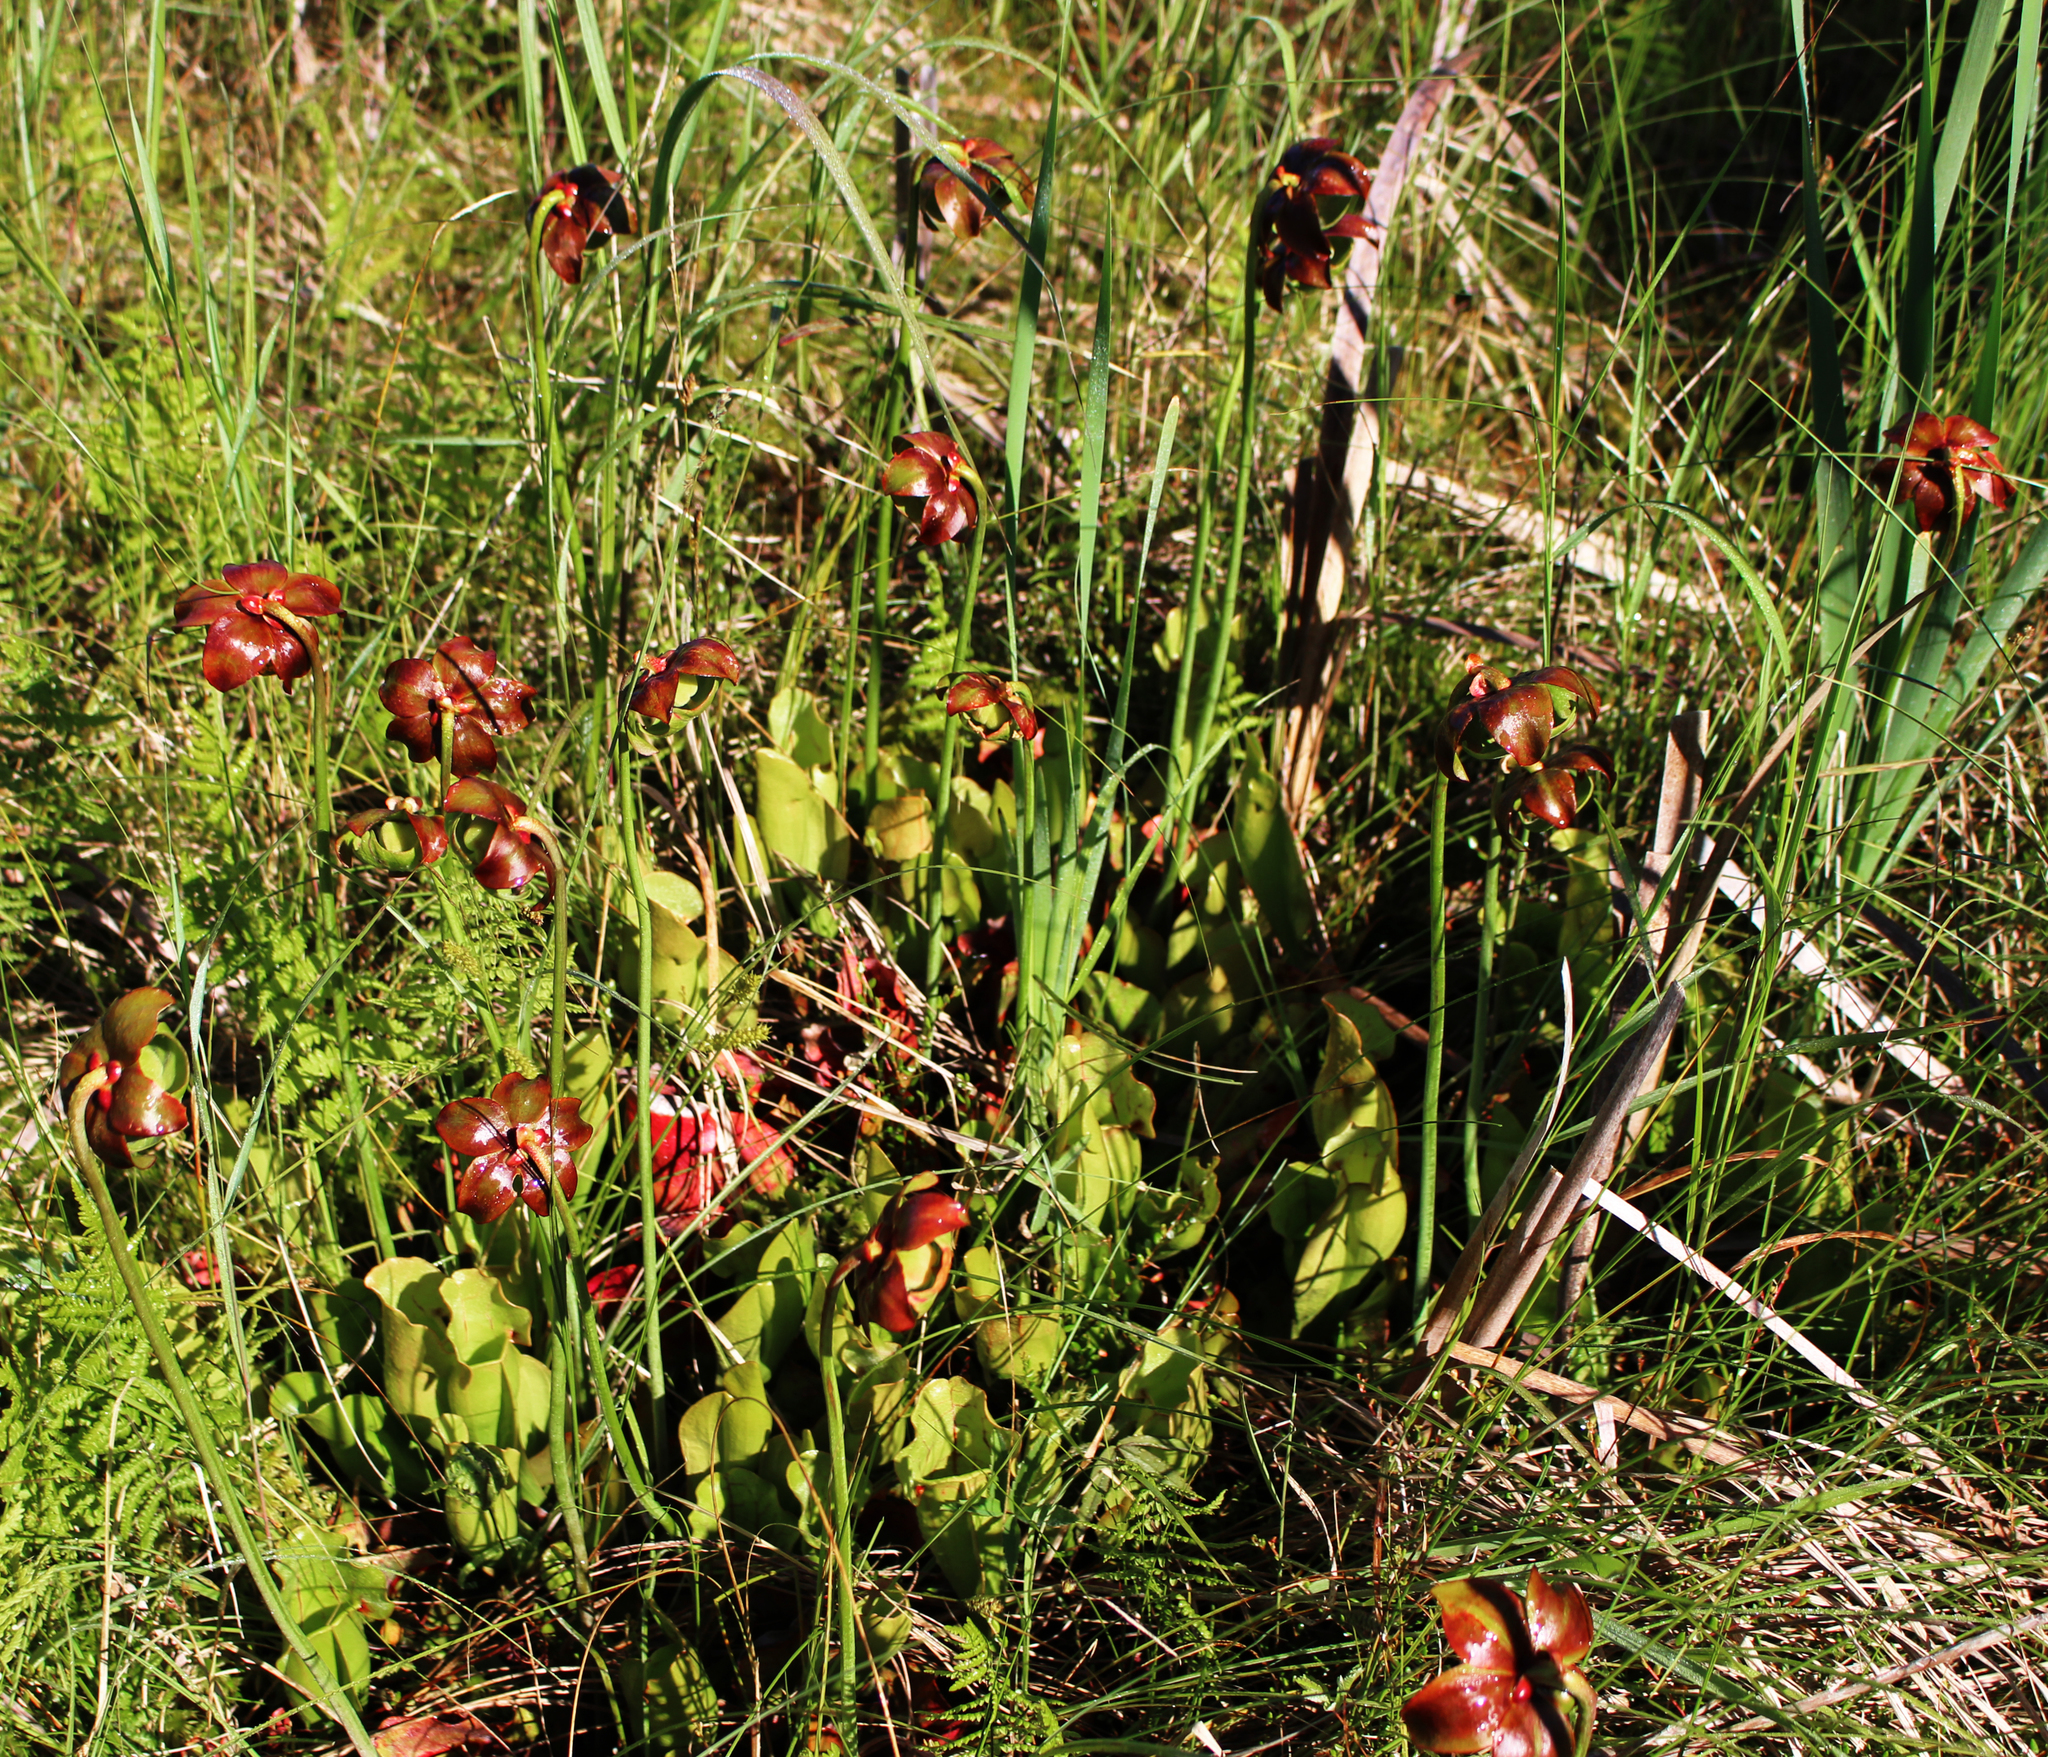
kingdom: Plantae
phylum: Tracheophyta
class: Magnoliopsida
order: Ericales
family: Sarraceniaceae
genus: Sarracenia
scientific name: Sarracenia purpurea
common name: Pitcherplant
